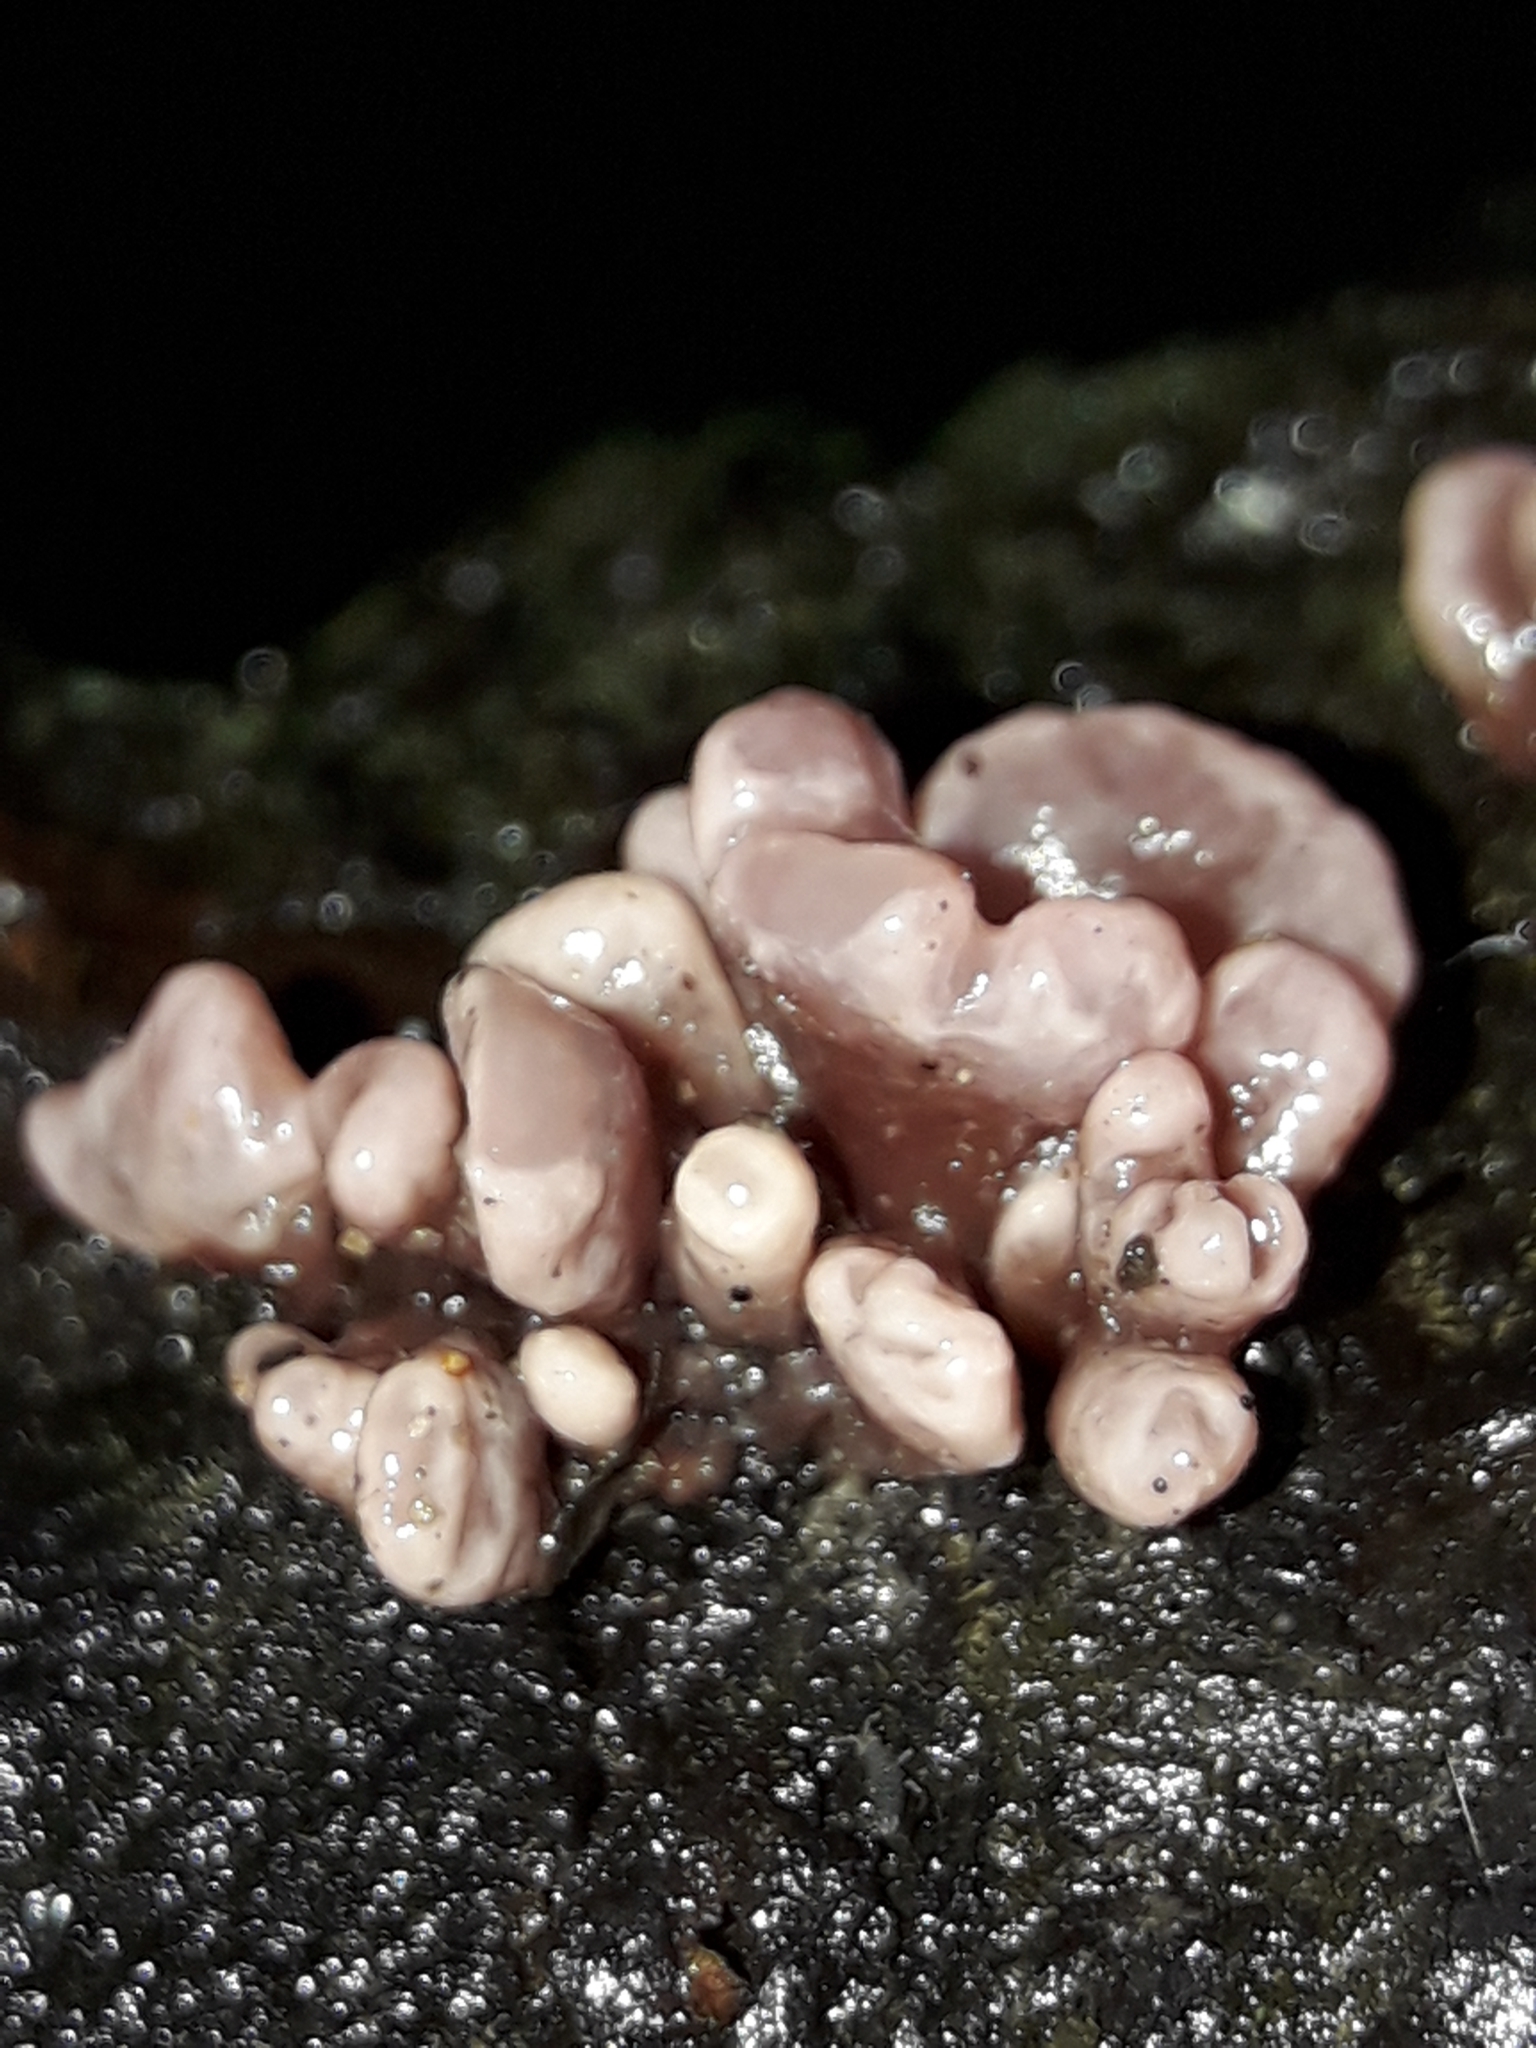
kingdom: Fungi
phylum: Ascomycota
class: Leotiomycetes
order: Helotiales
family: Gelatinodiscaceae
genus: Ascocoryne
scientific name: Ascocoryne sarcoides
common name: Purple jellydisc
